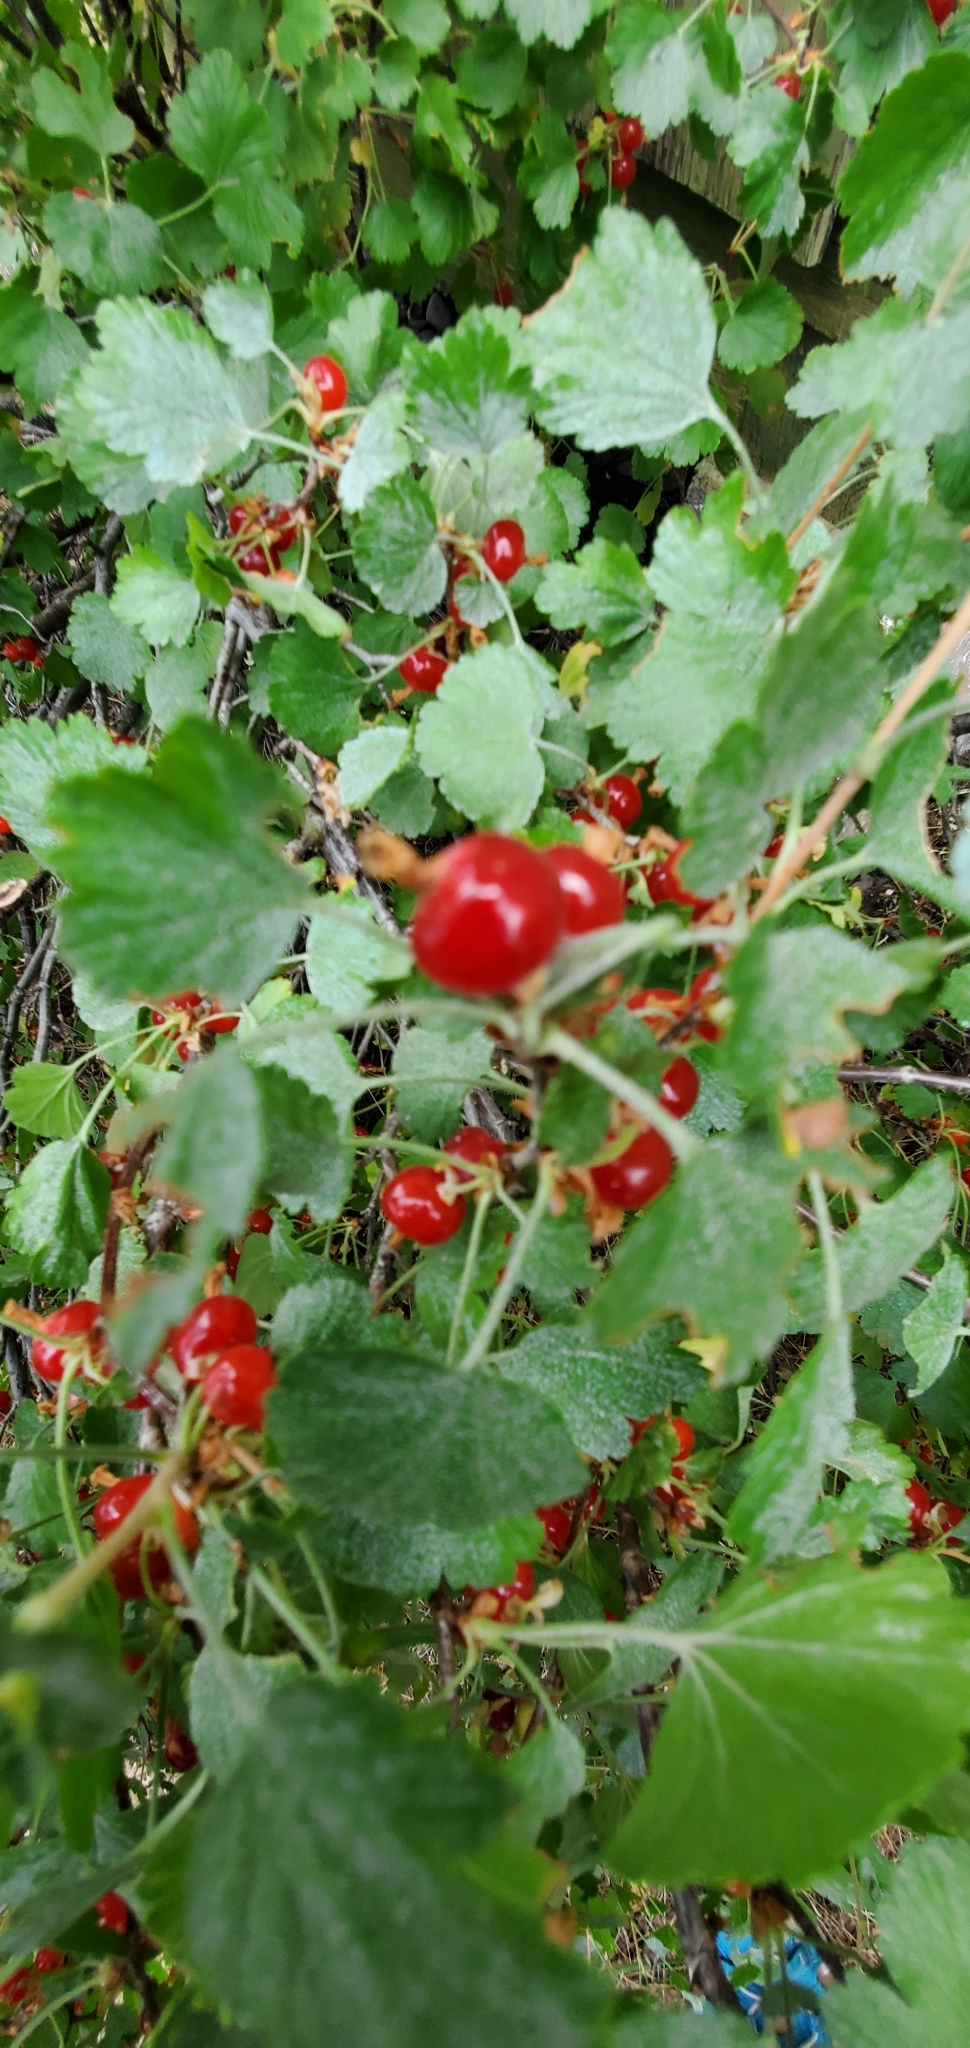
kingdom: Plantae
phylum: Tracheophyta
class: Magnoliopsida
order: Saxifragales
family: Grossulariaceae
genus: Ribes
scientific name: Ribes cereum
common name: Wax currant
